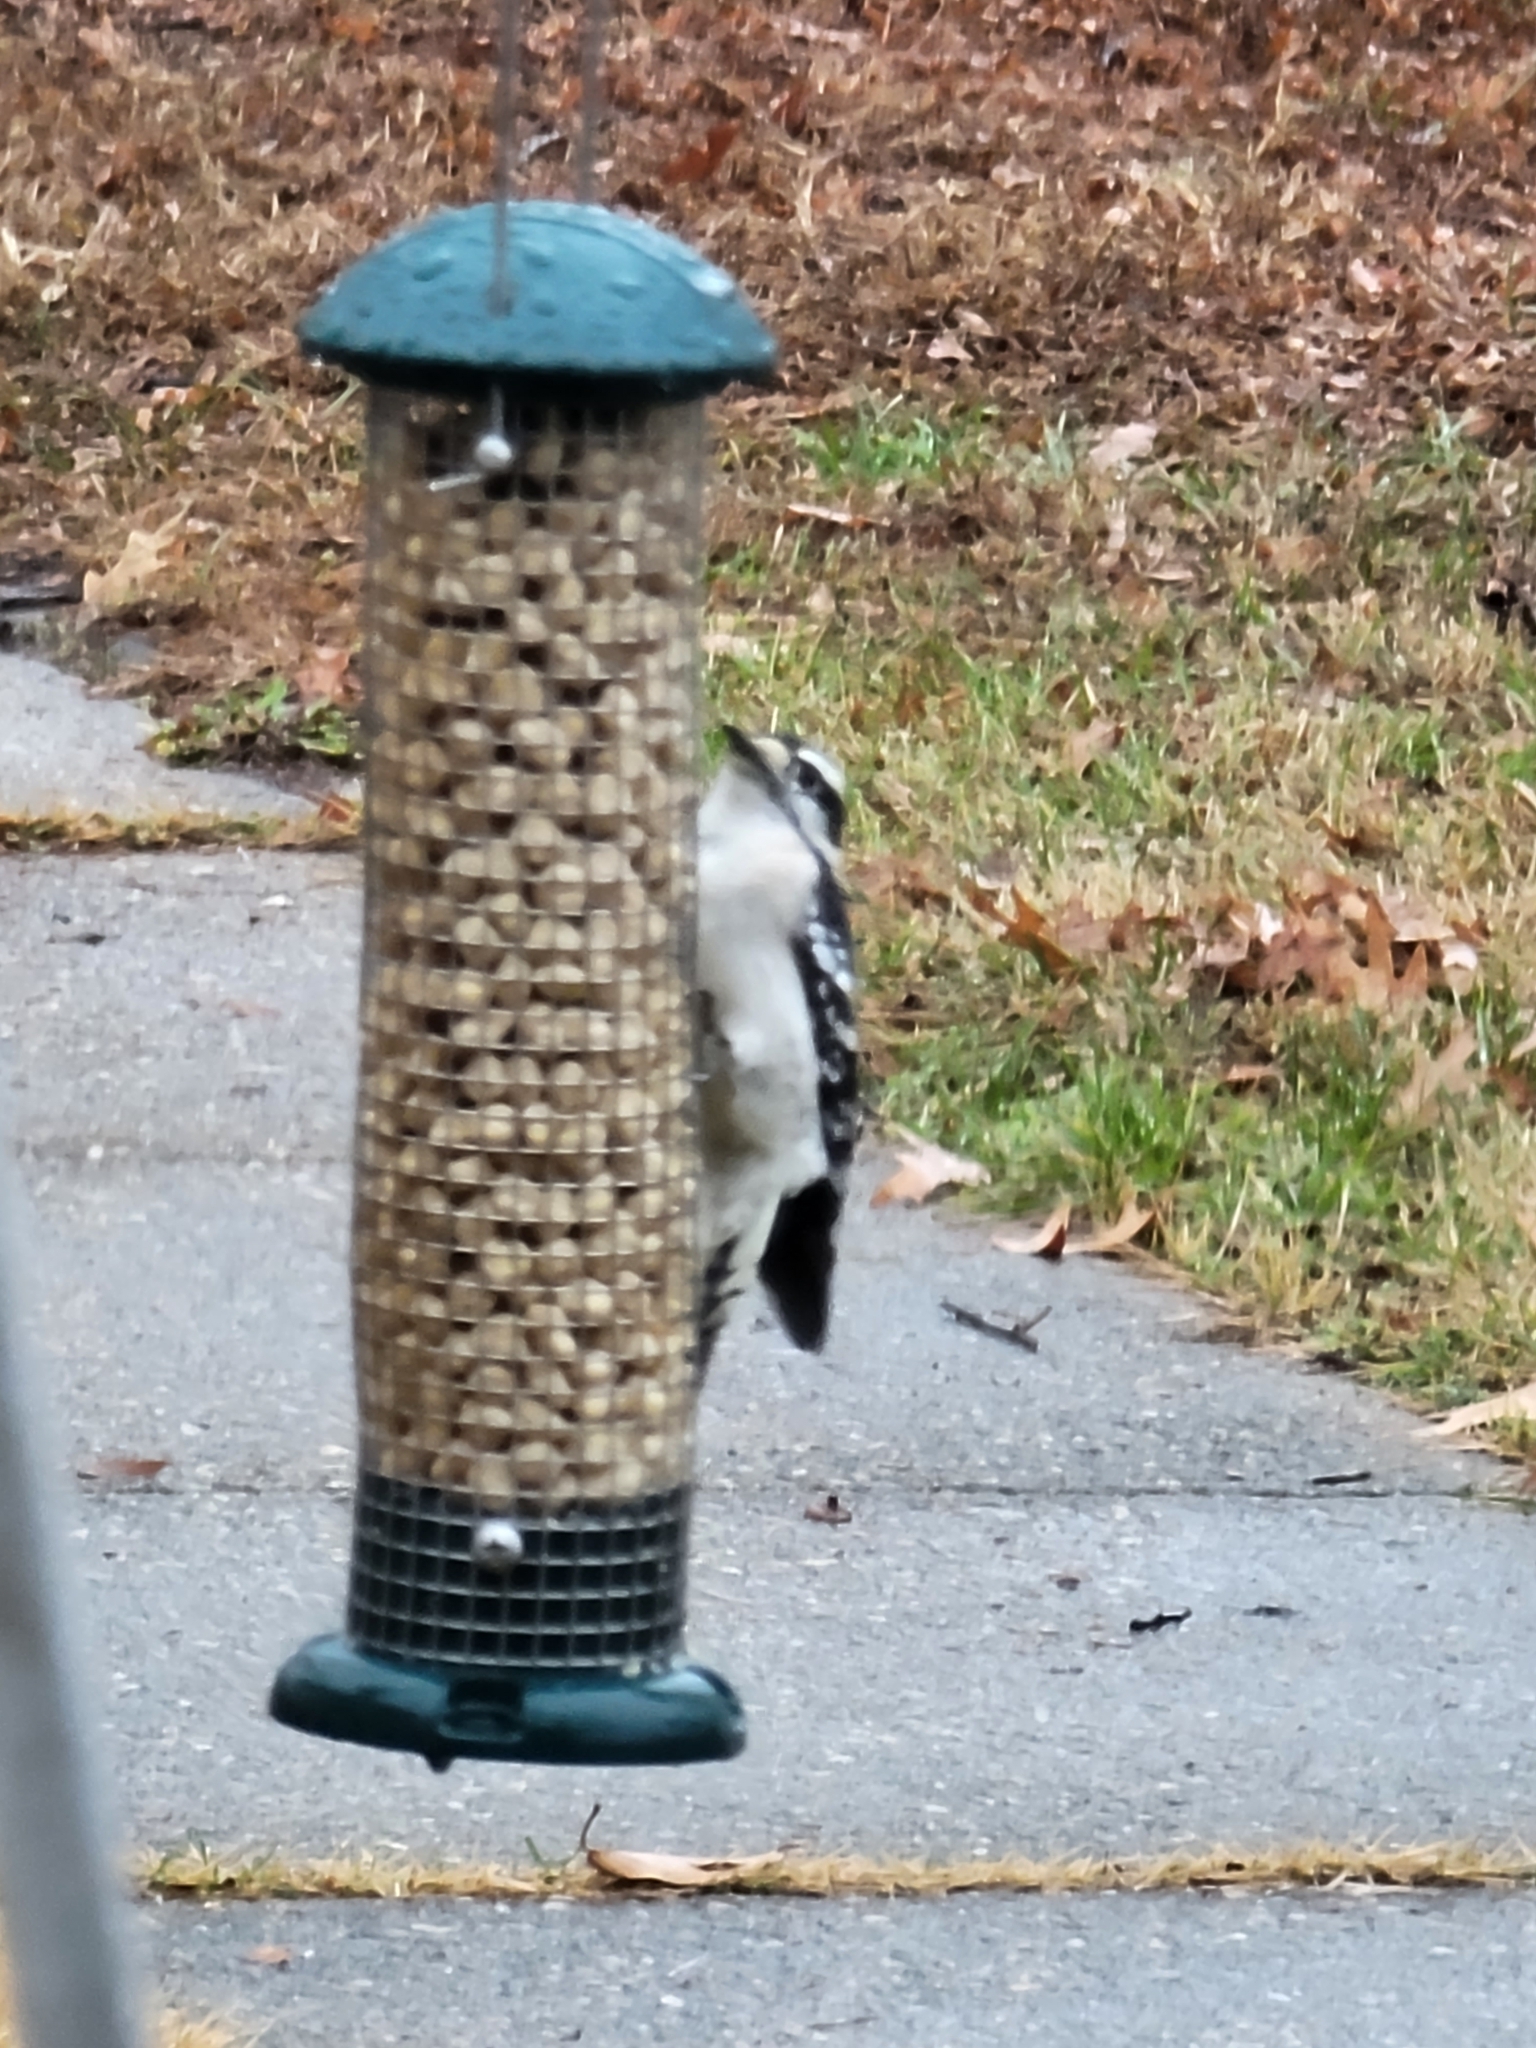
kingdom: Animalia
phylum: Chordata
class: Aves
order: Piciformes
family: Picidae
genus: Dryobates
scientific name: Dryobates pubescens
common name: Downy woodpecker
